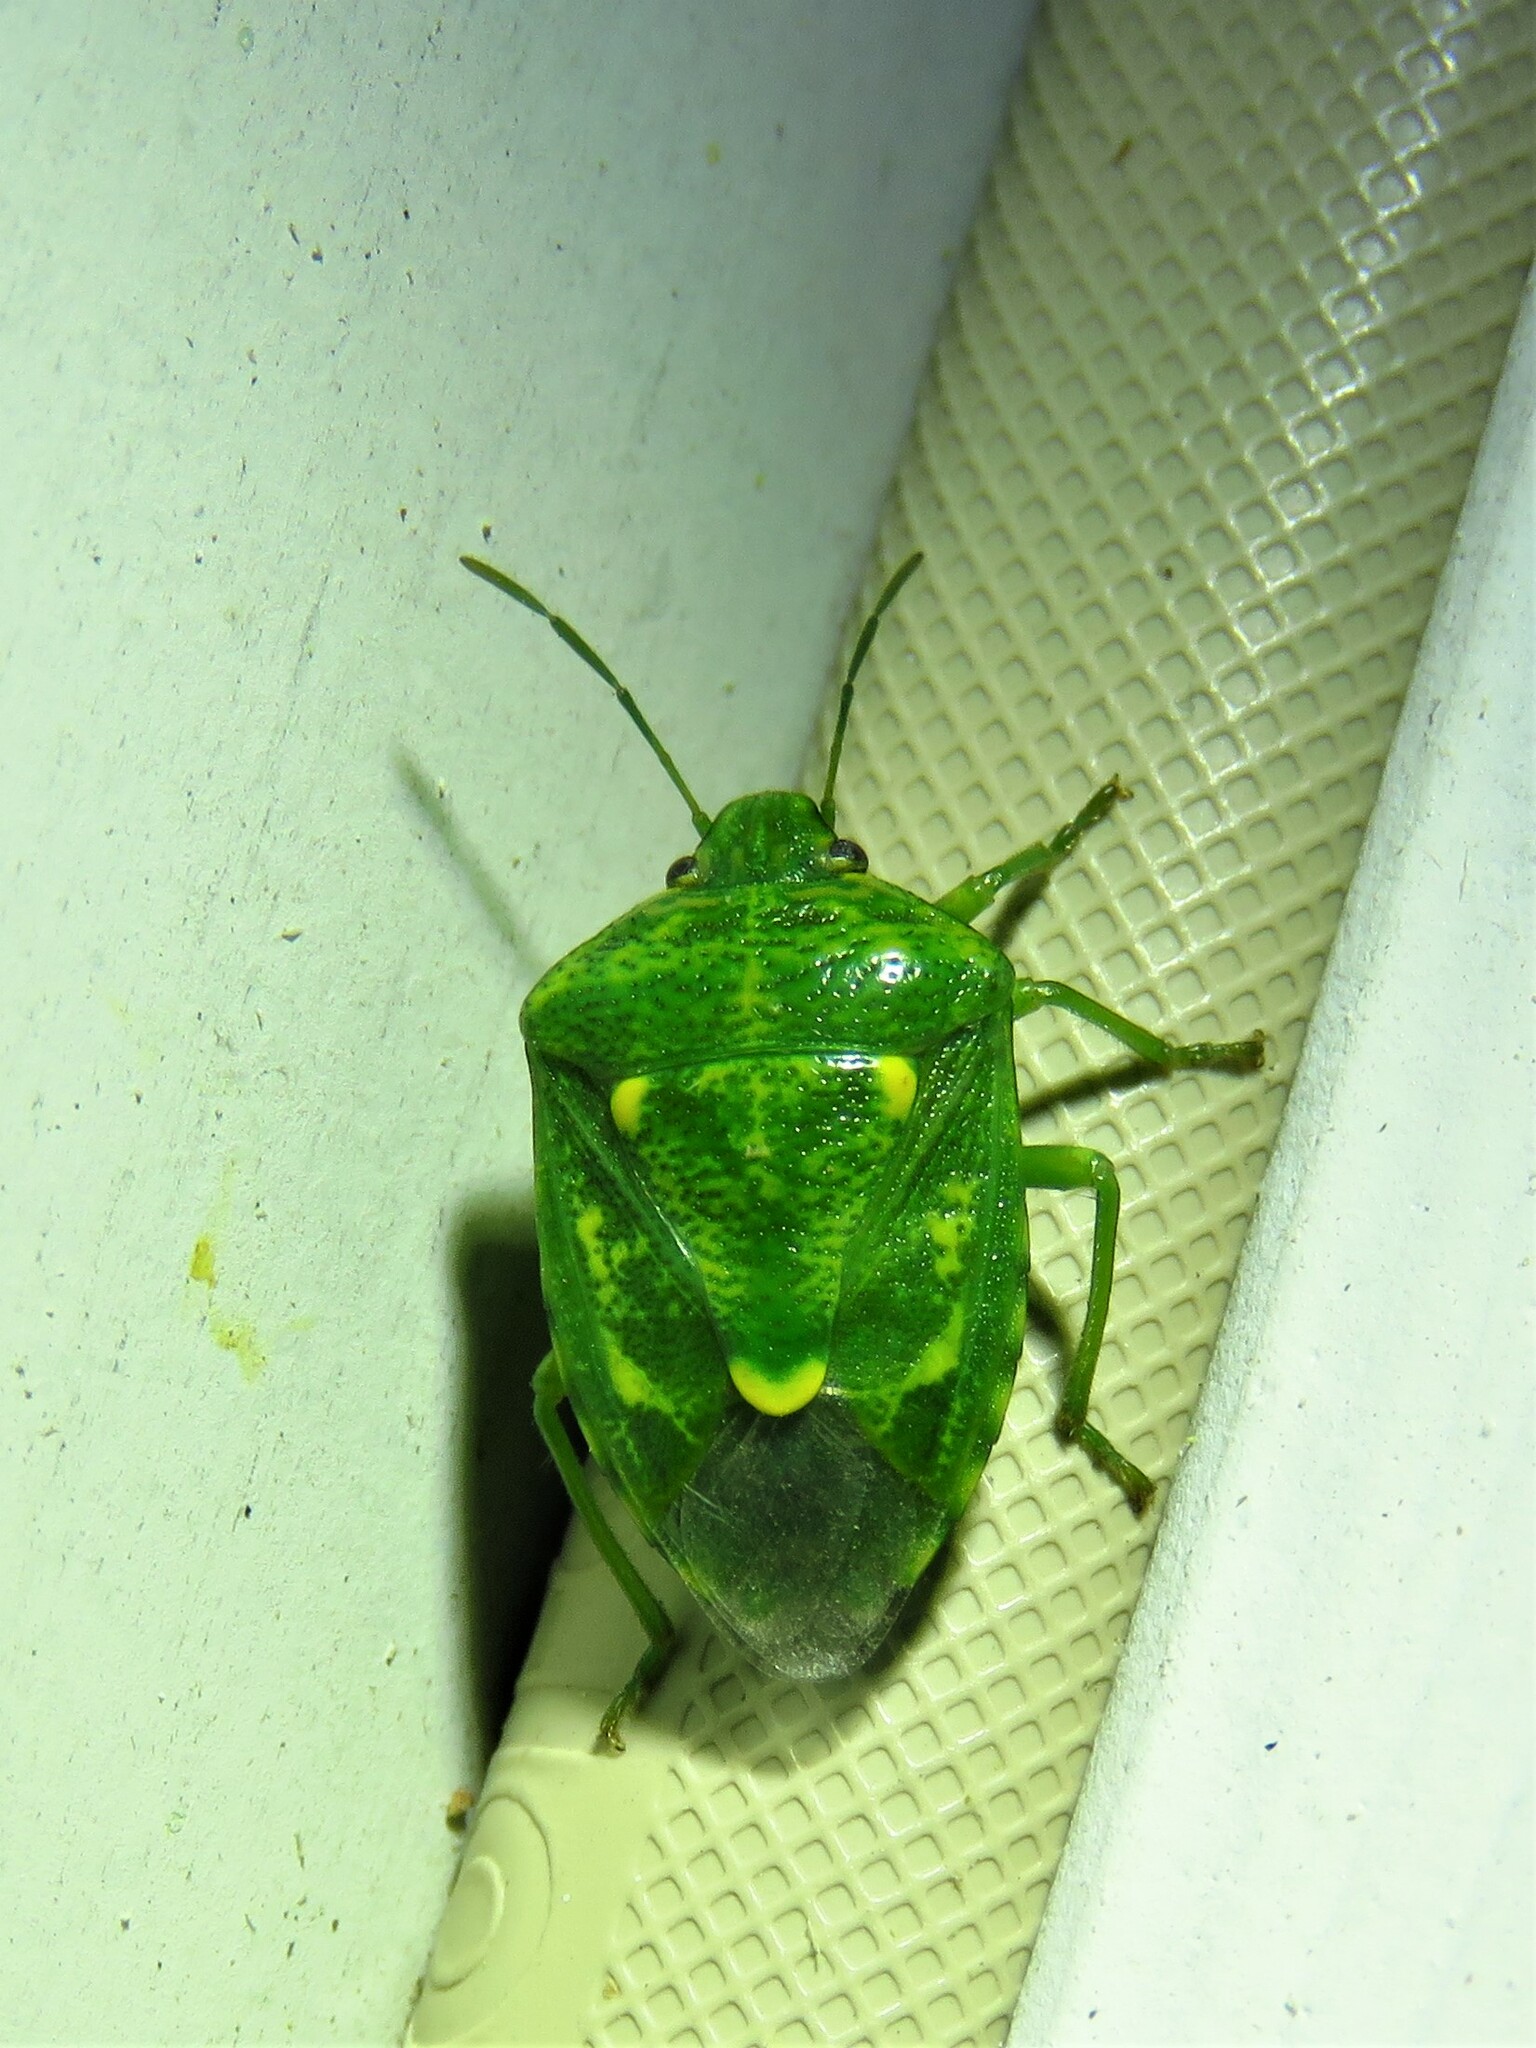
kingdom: Animalia
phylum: Arthropoda
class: Insecta
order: Hemiptera
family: Pentatomidae
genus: Banasa
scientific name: Banasa euchlora
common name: Cedar berry bug
